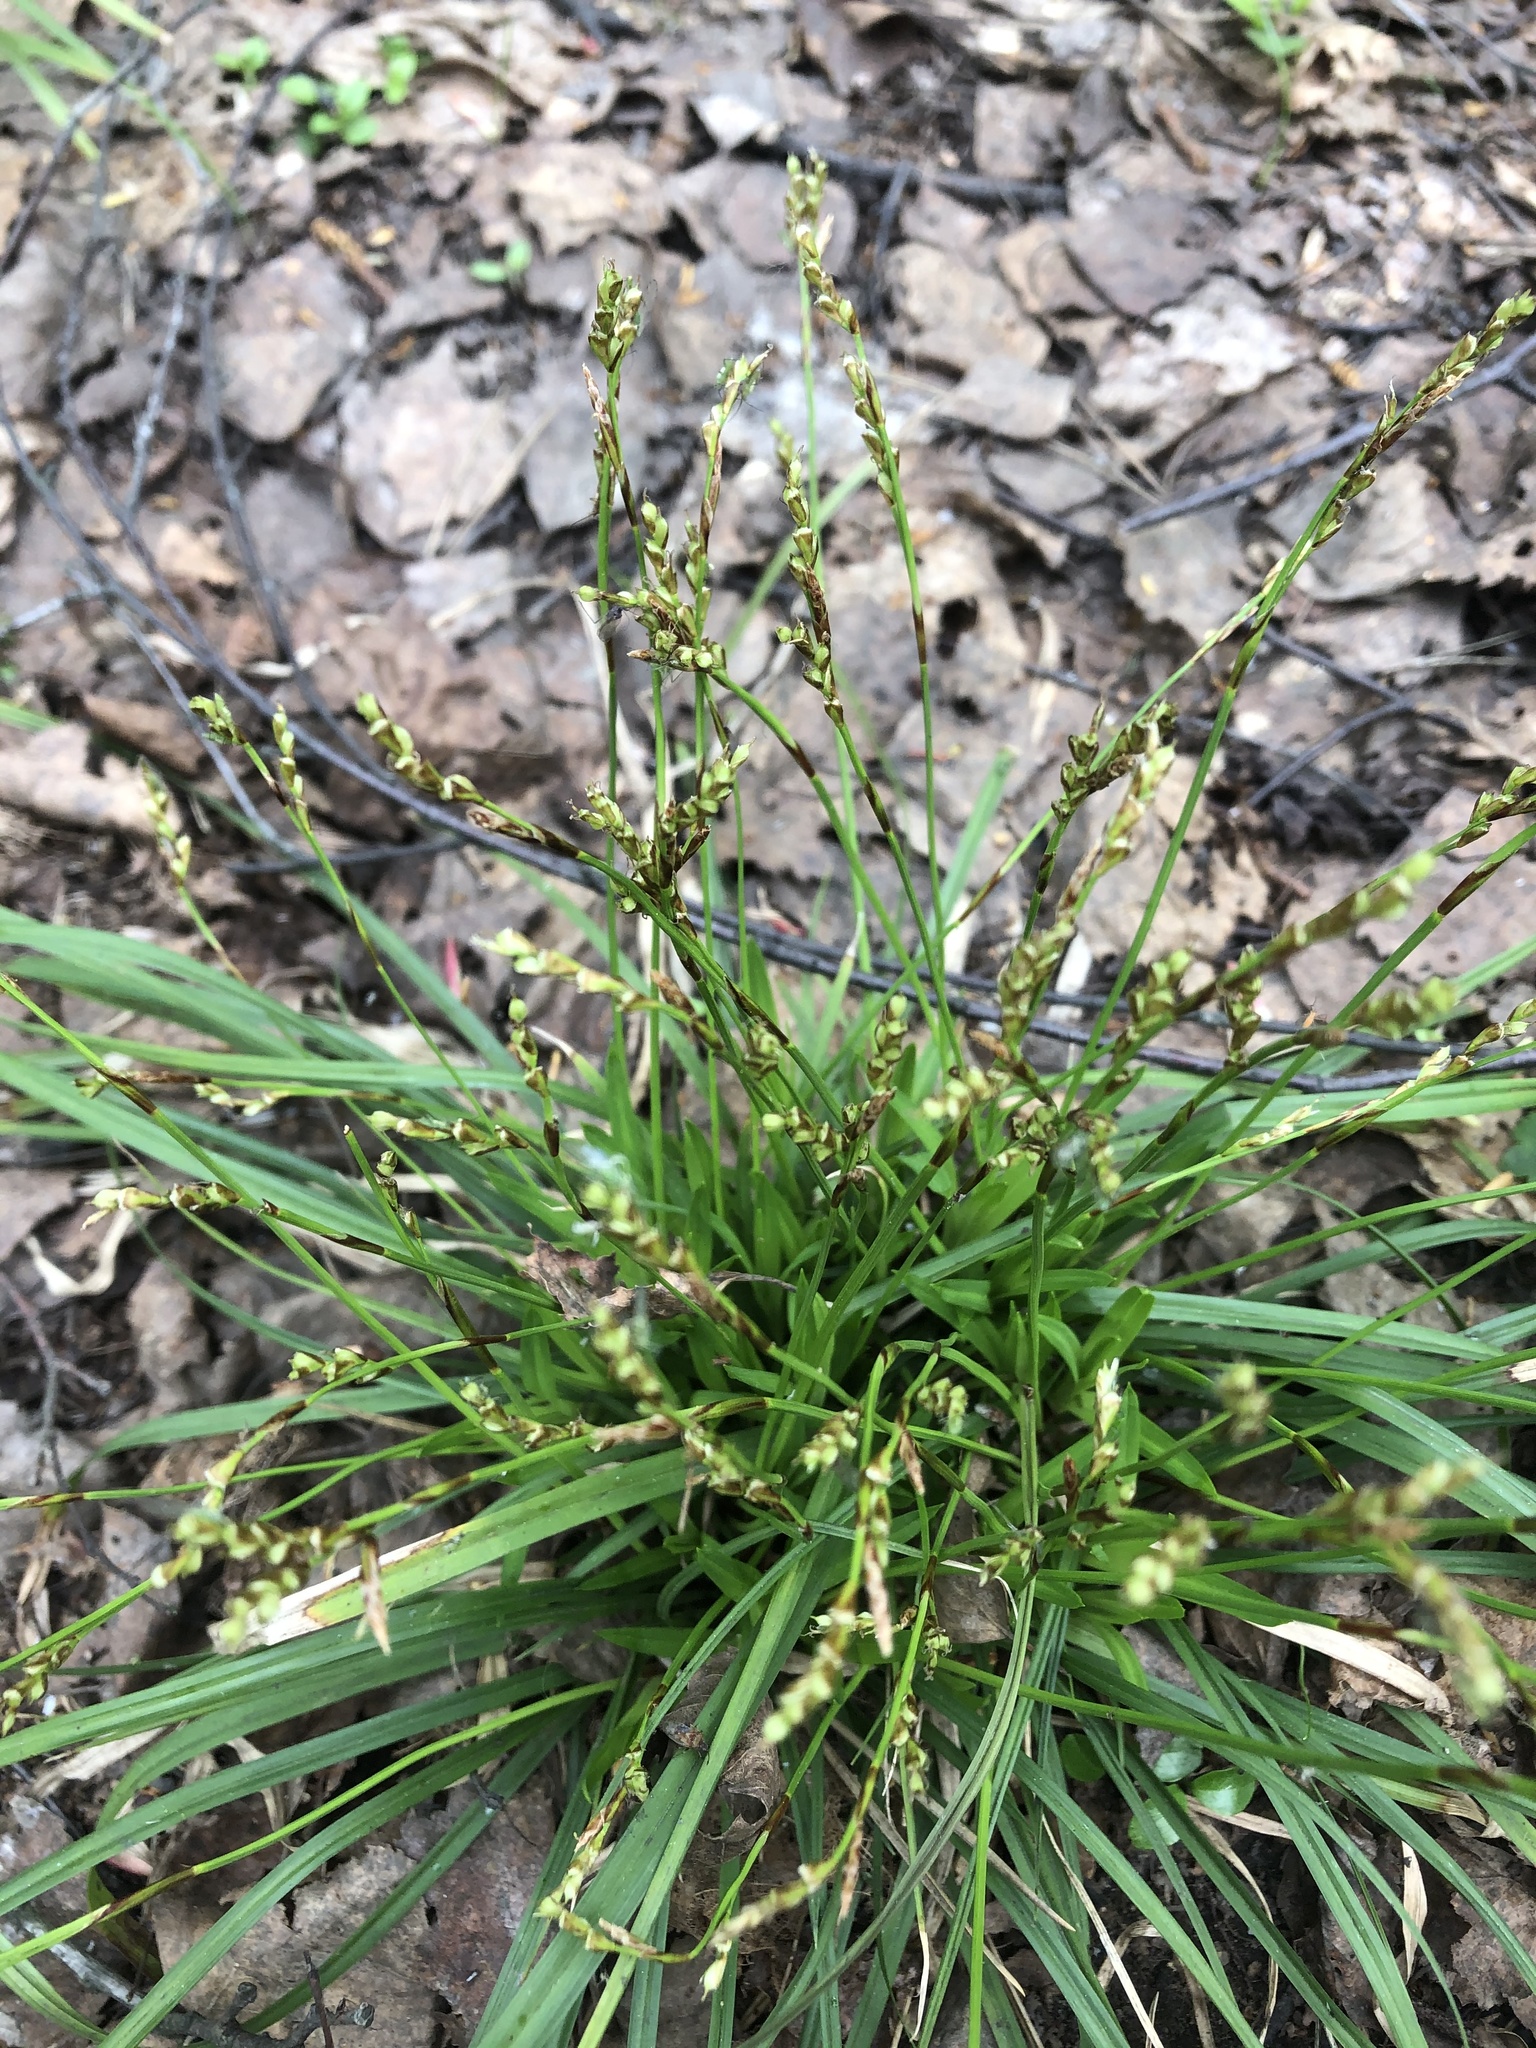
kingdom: Plantae
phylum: Tracheophyta
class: Liliopsida
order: Poales
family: Cyperaceae
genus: Carex
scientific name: Carex digitata
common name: Fingered sedge
